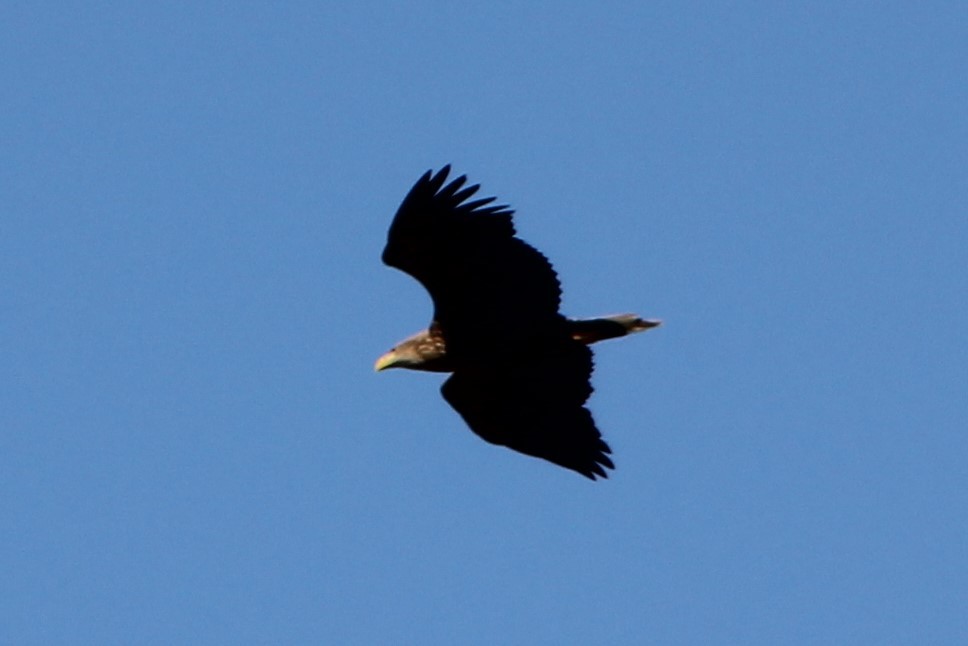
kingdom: Animalia
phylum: Chordata
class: Aves
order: Accipitriformes
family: Accipitridae
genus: Haliaeetus
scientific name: Haliaeetus albicilla
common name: White-tailed eagle
